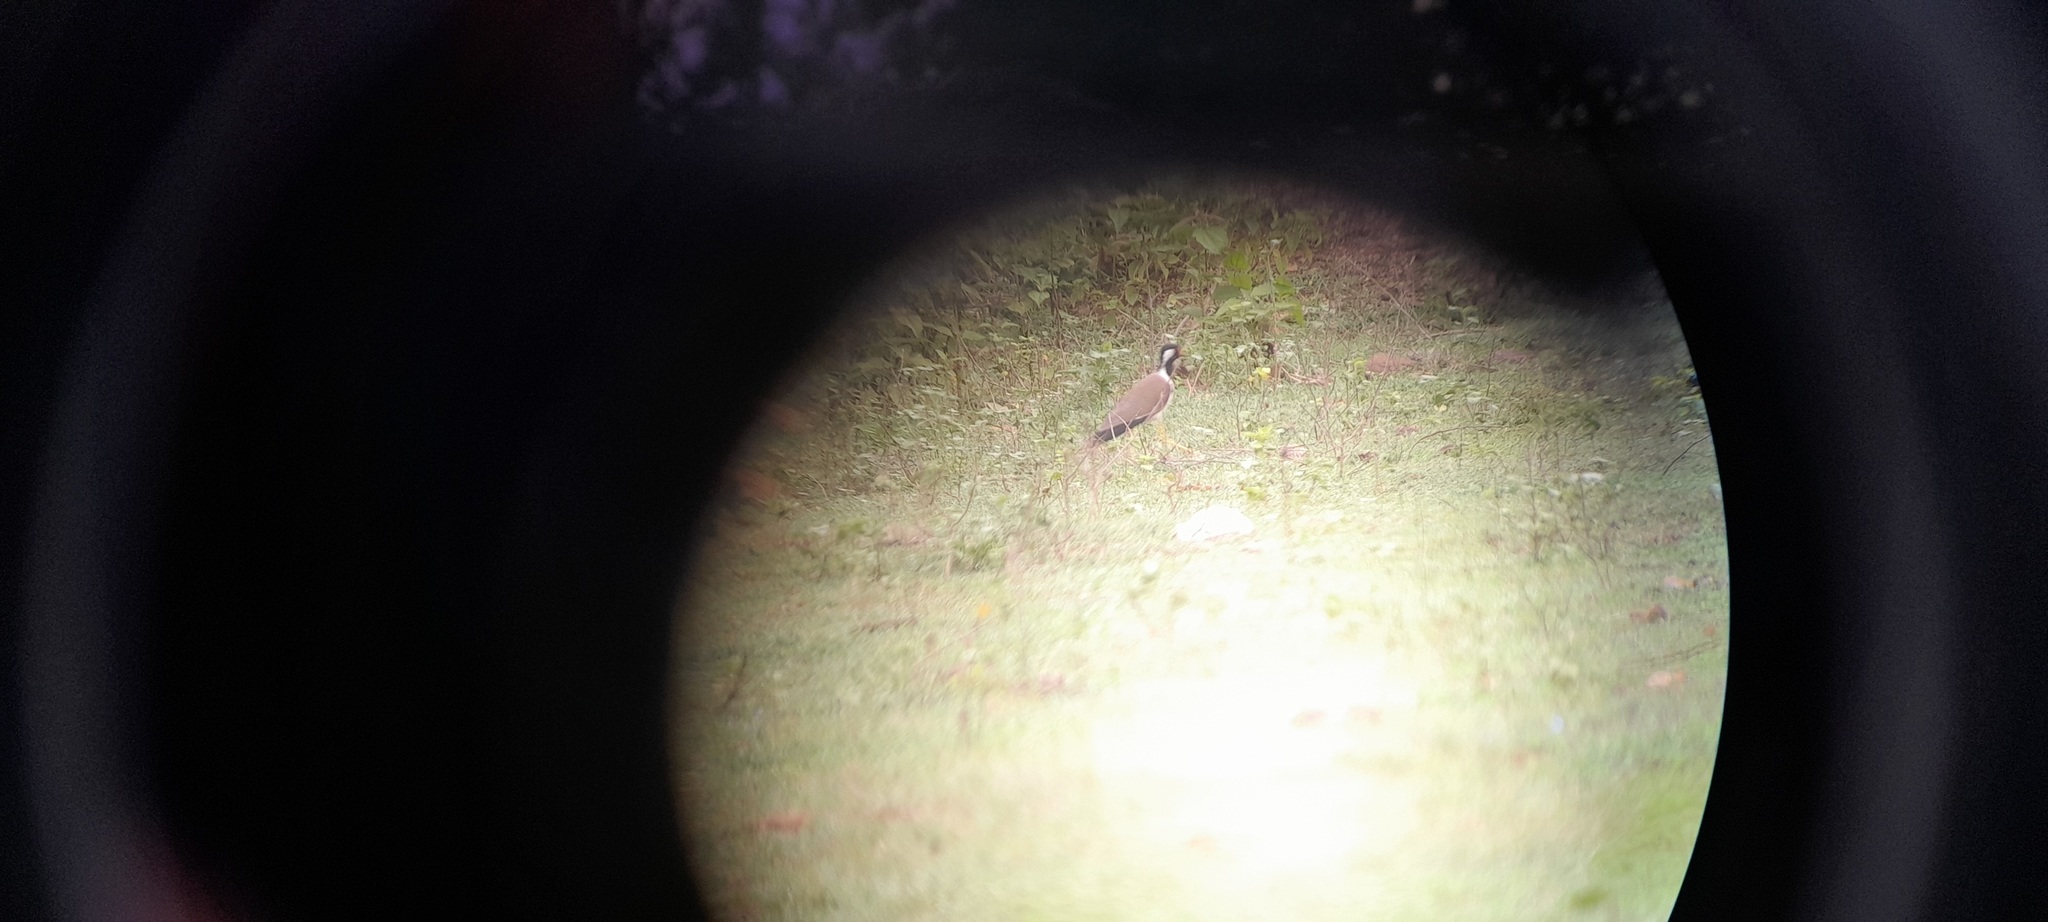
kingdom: Animalia
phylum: Chordata
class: Aves
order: Charadriiformes
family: Charadriidae
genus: Vanellus
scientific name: Vanellus indicus
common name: Red-wattled lapwing
